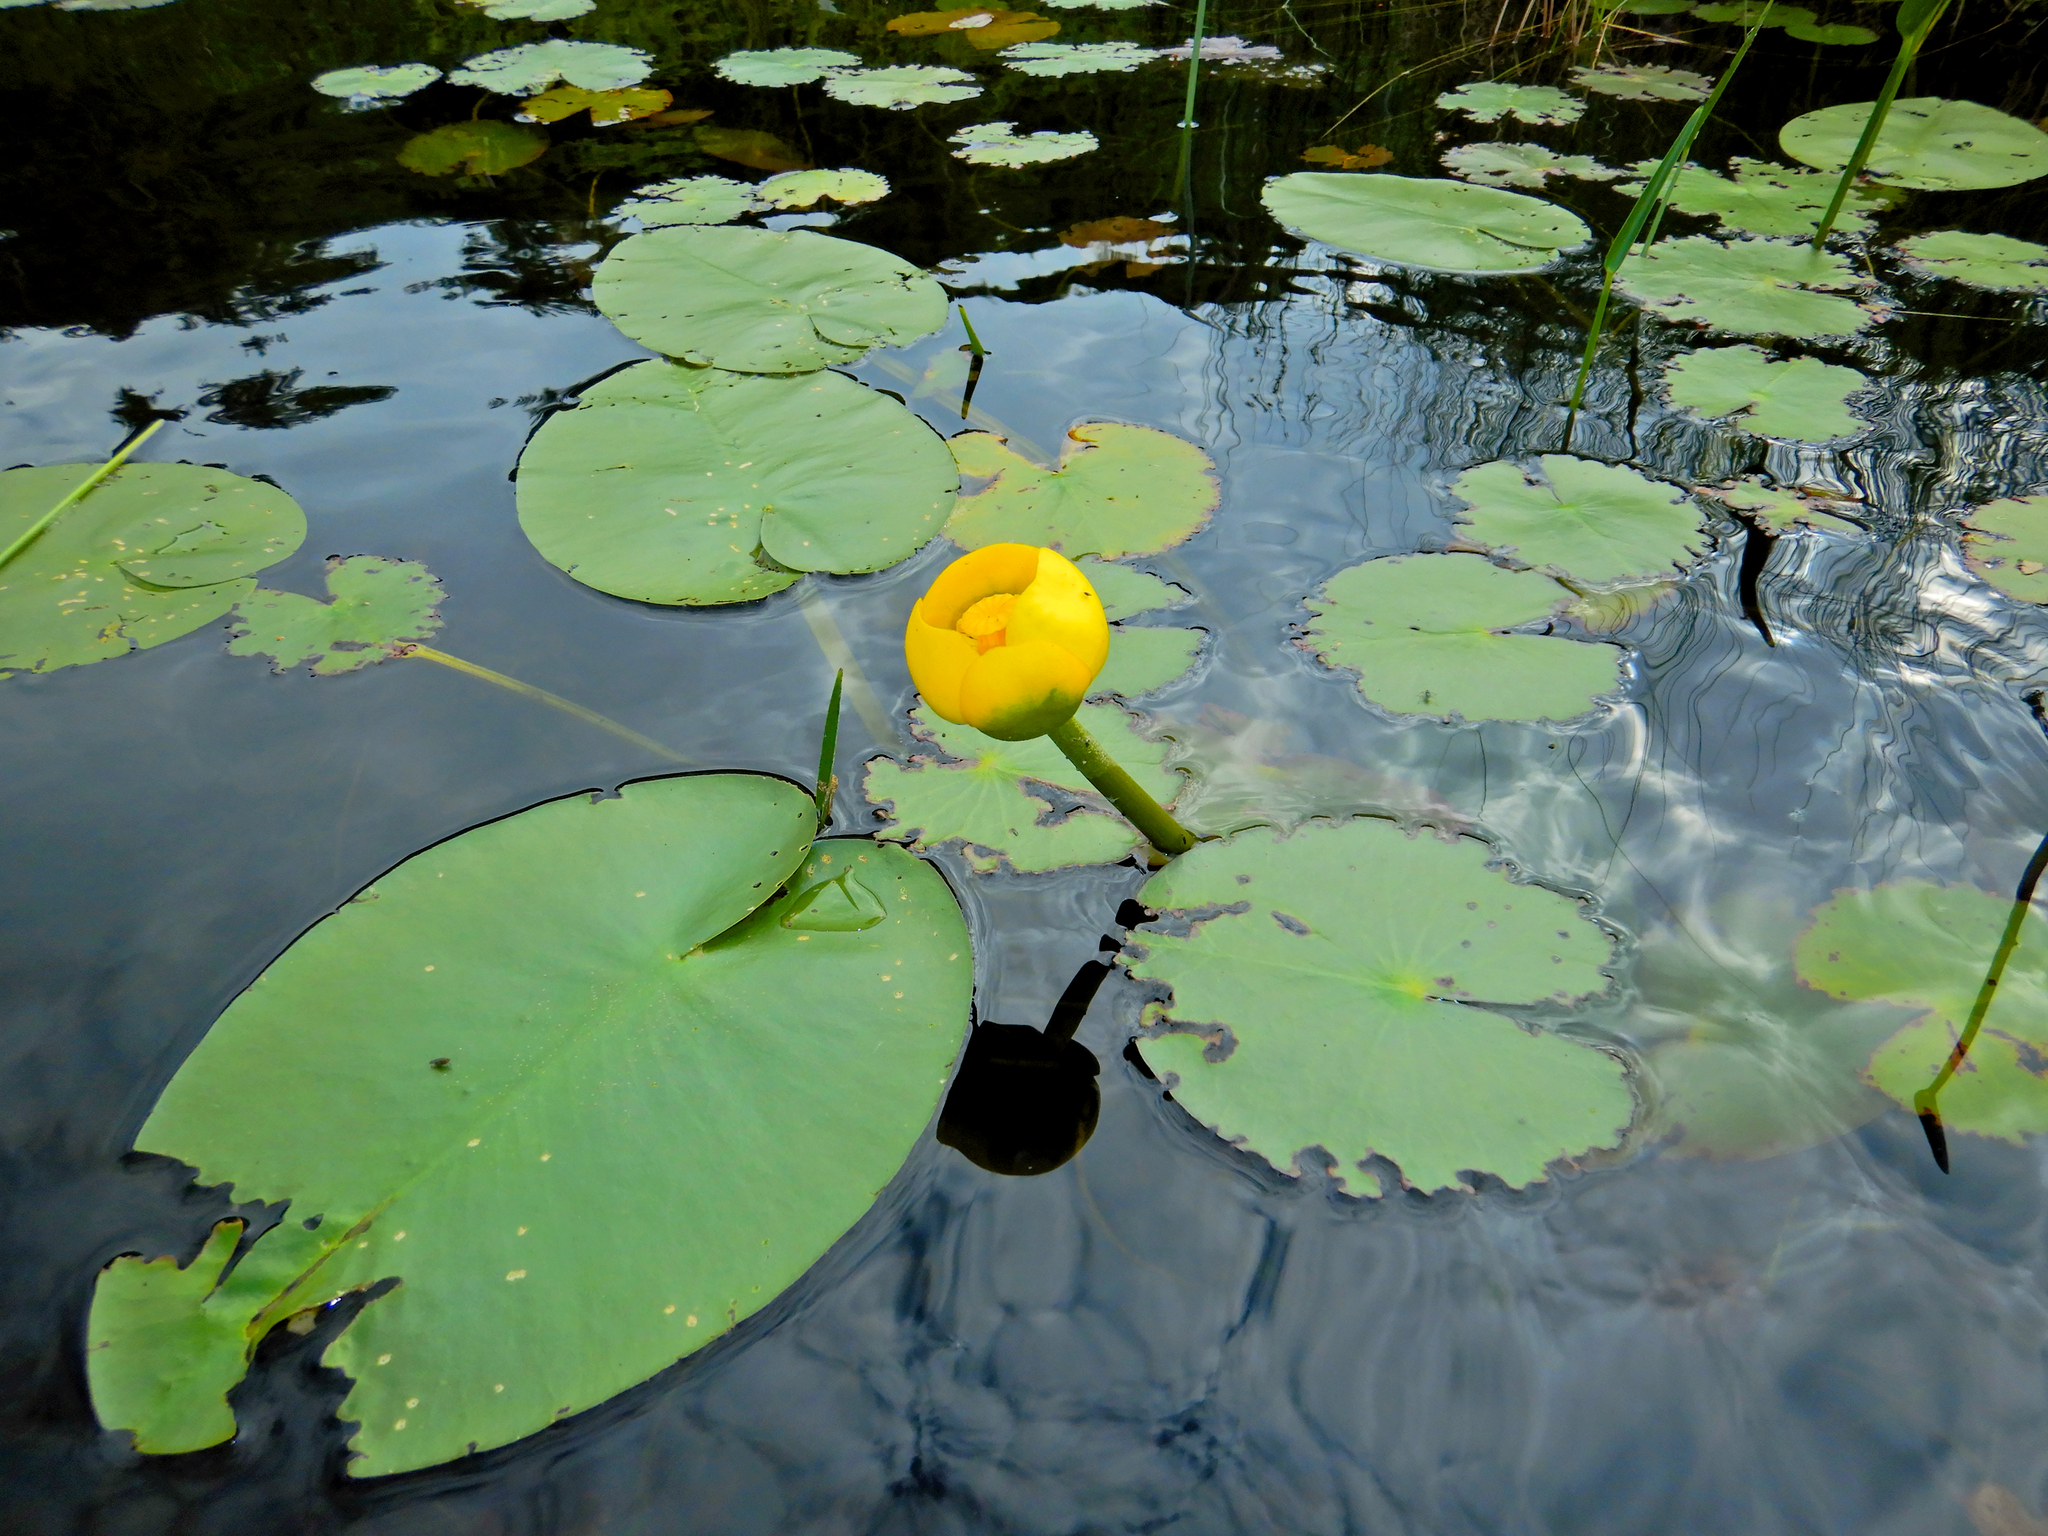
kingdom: Plantae
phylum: Tracheophyta
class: Magnoliopsida
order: Nymphaeales
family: Nymphaeaceae
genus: Nuphar
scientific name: Nuphar variegata
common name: Beaver-root
